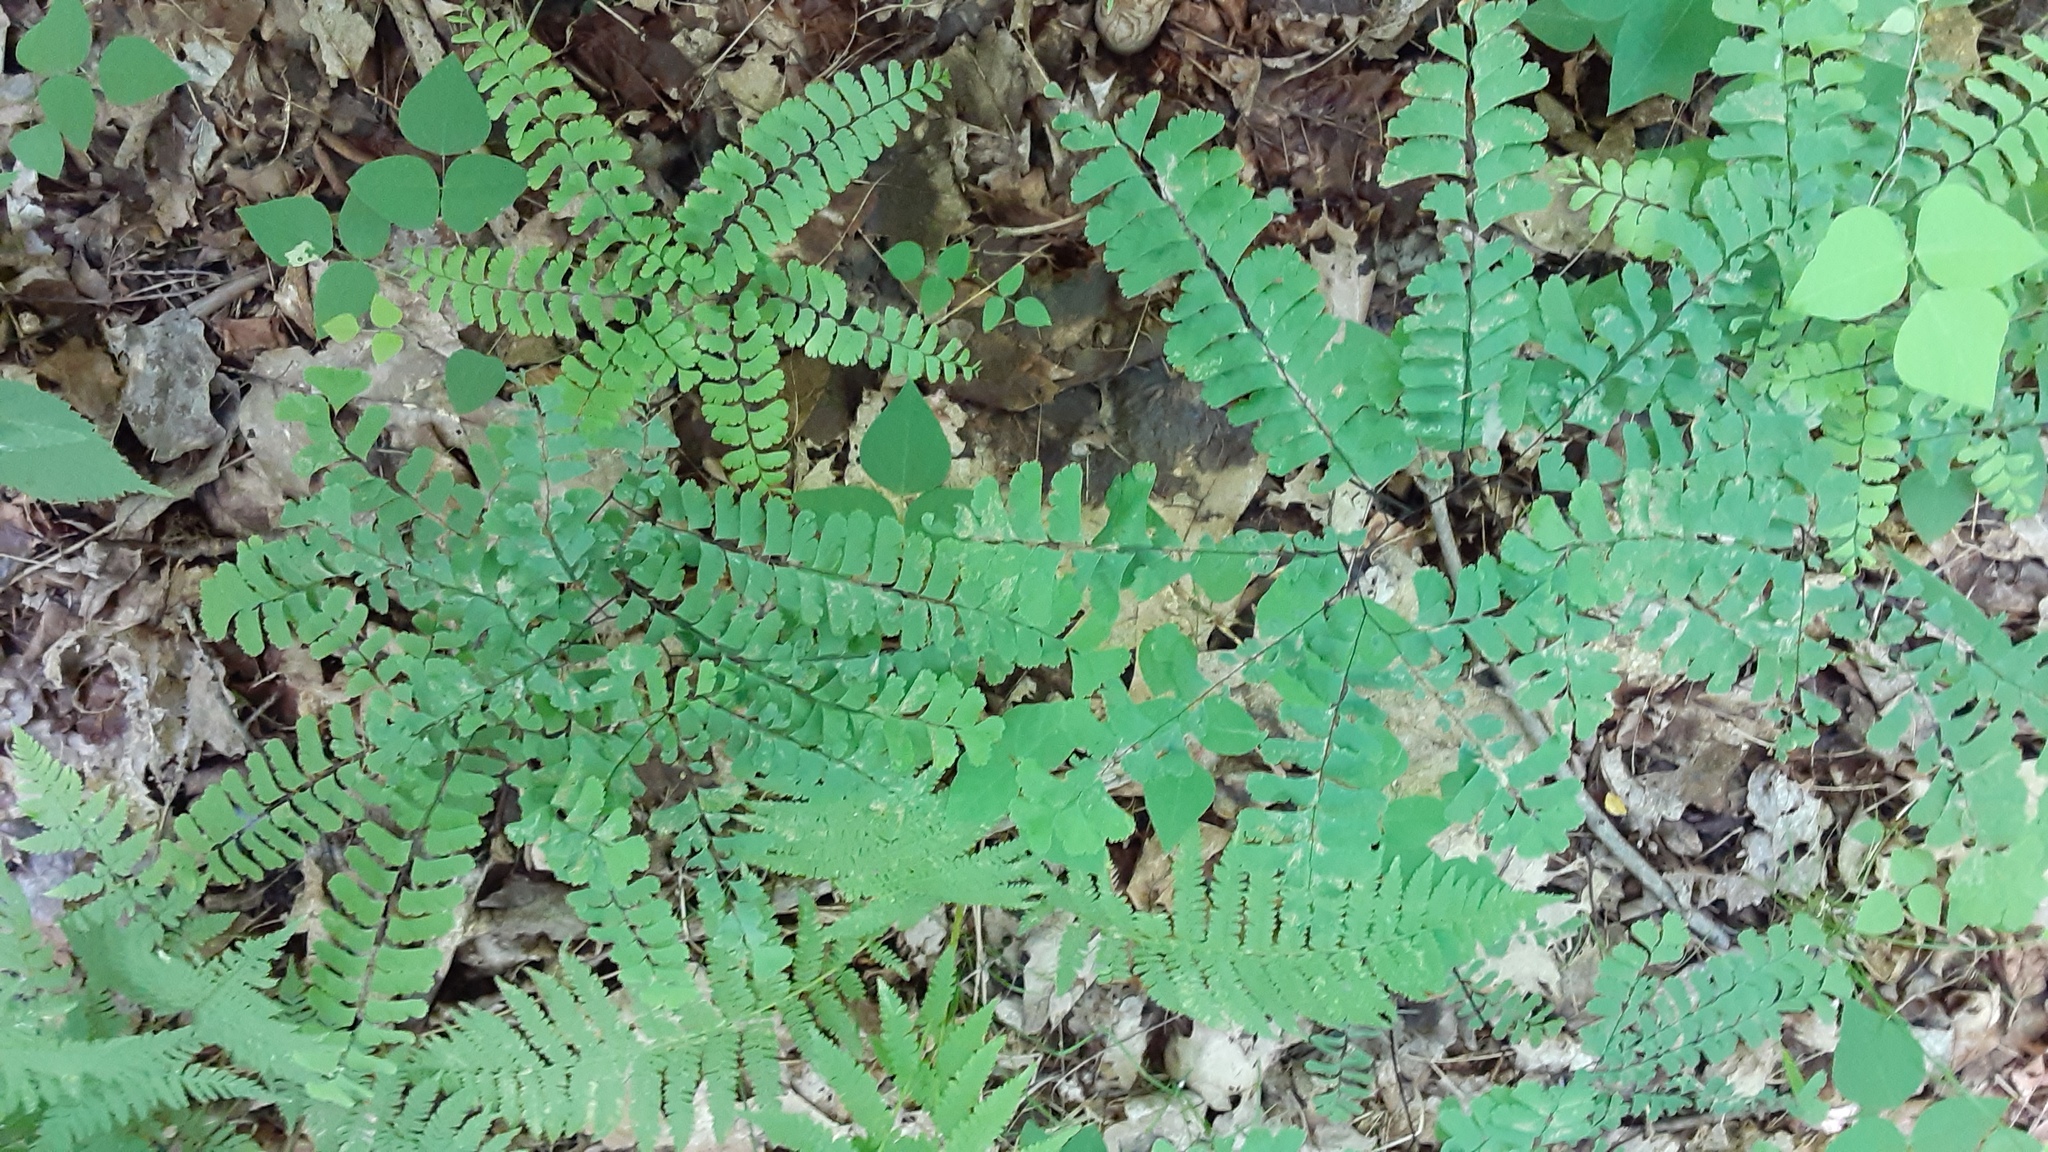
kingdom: Plantae
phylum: Tracheophyta
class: Polypodiopsida
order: Polypodiales
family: Pteridaceae
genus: Adiantum
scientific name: Adiantum pedatum
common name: Five-finger fern
